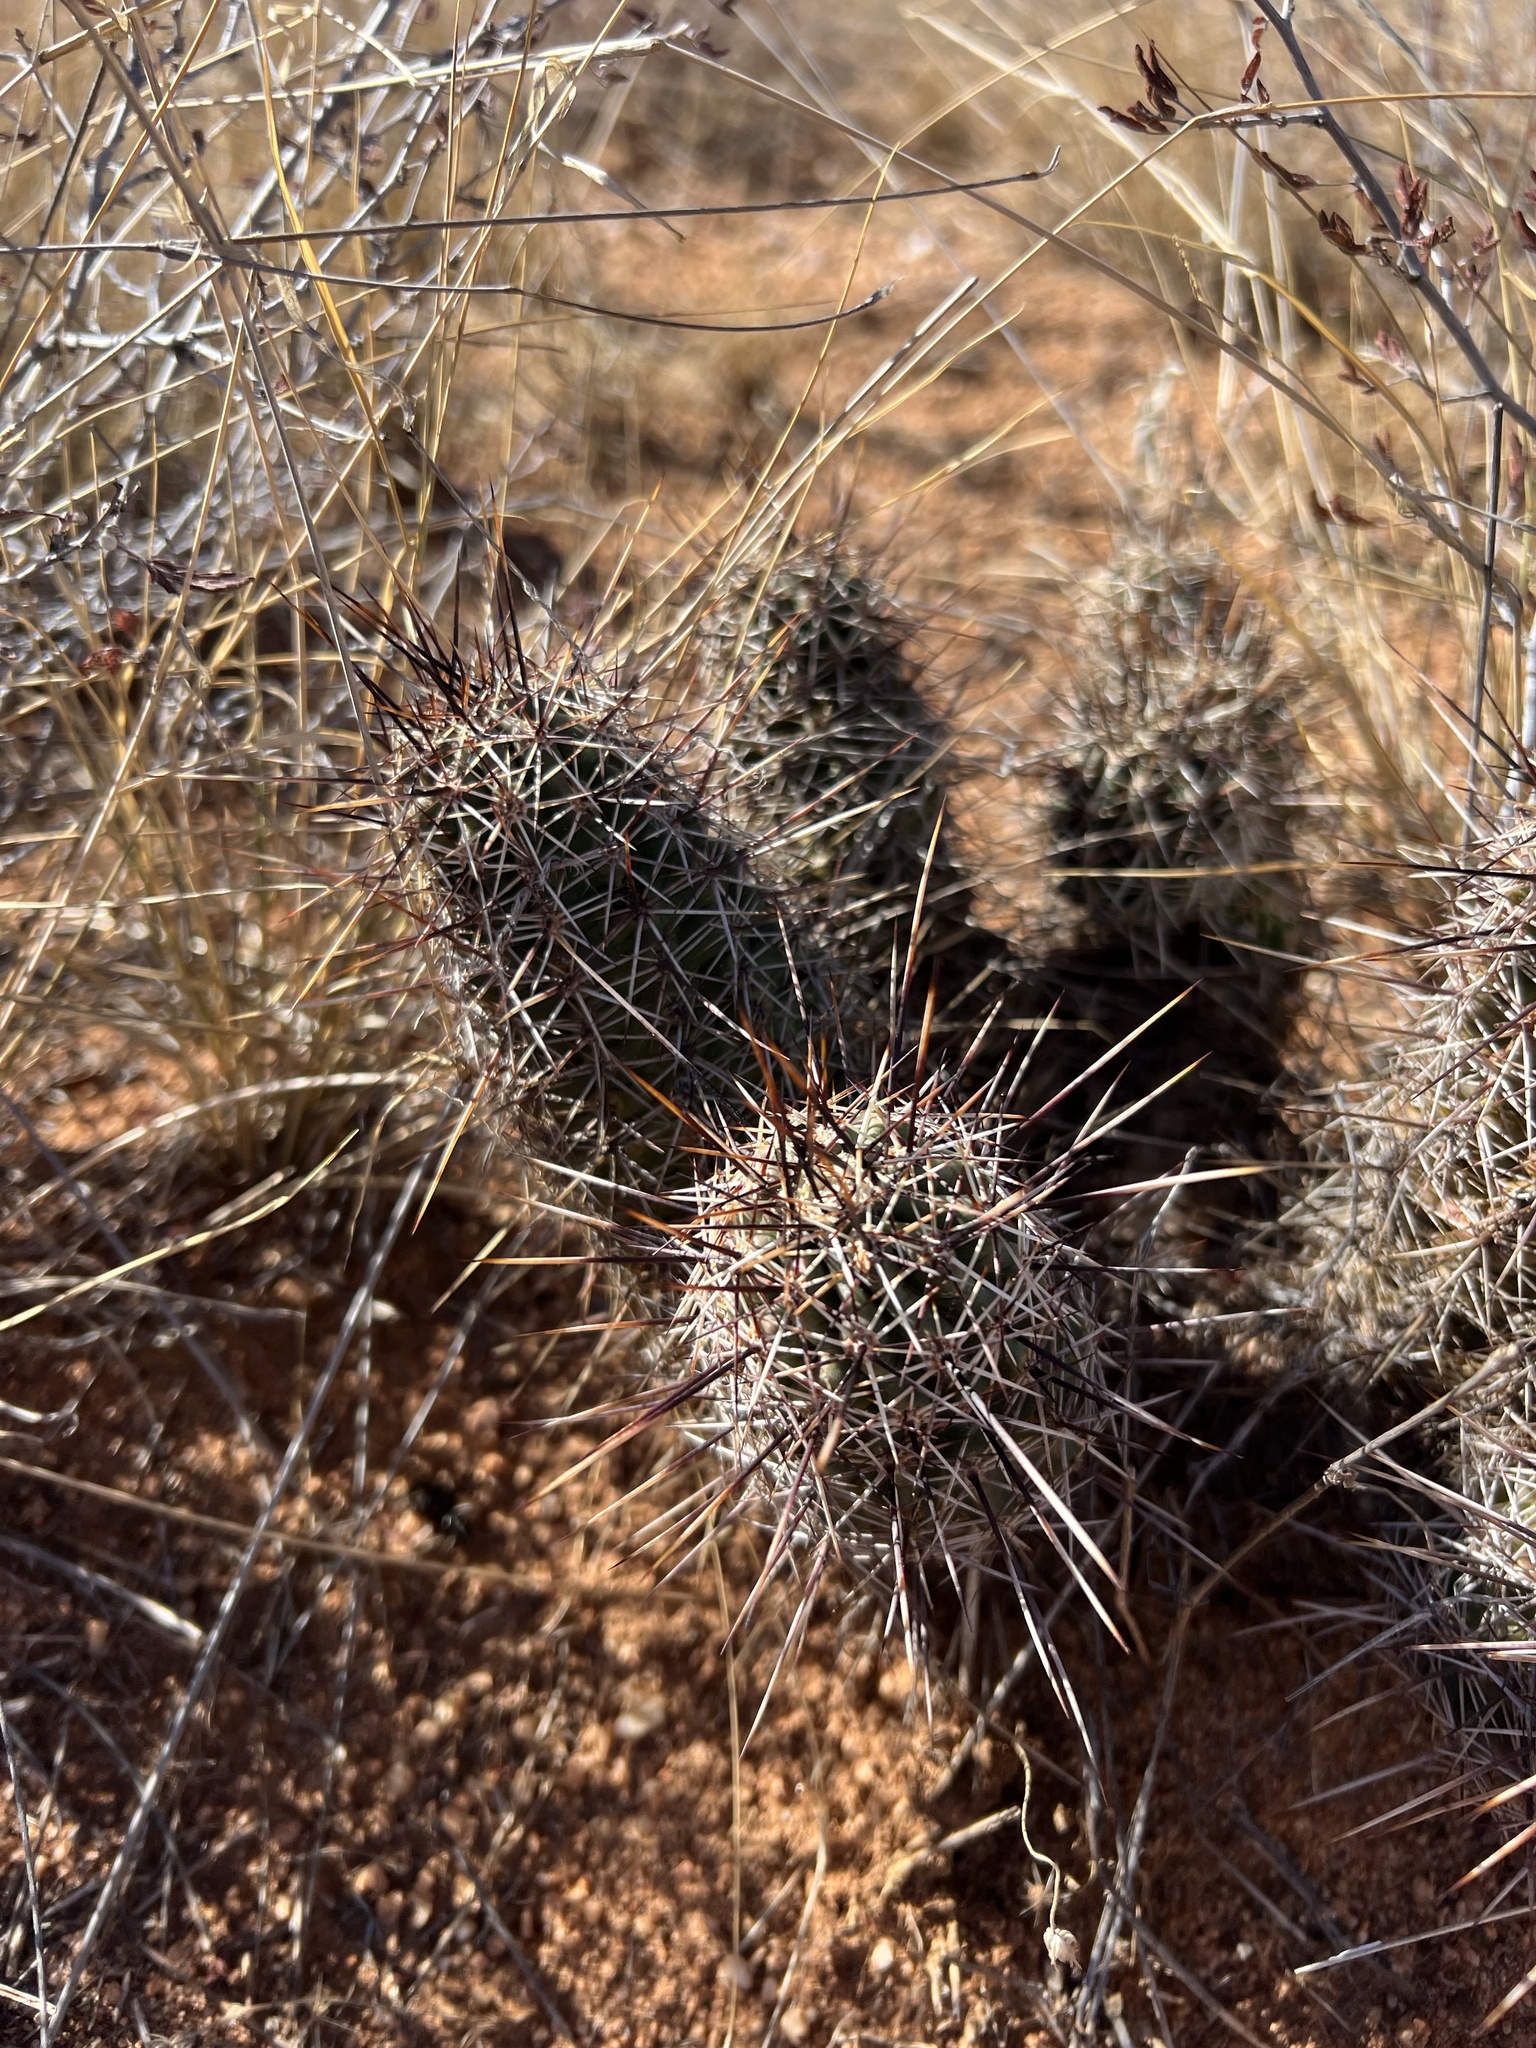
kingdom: Plantae
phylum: Tracheophyta
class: Magnoliopsida
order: Caryophyllales
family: Cactaceae
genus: Echinocereus
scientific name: Echinocereus fasciculatus
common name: Bundle hedgehog
